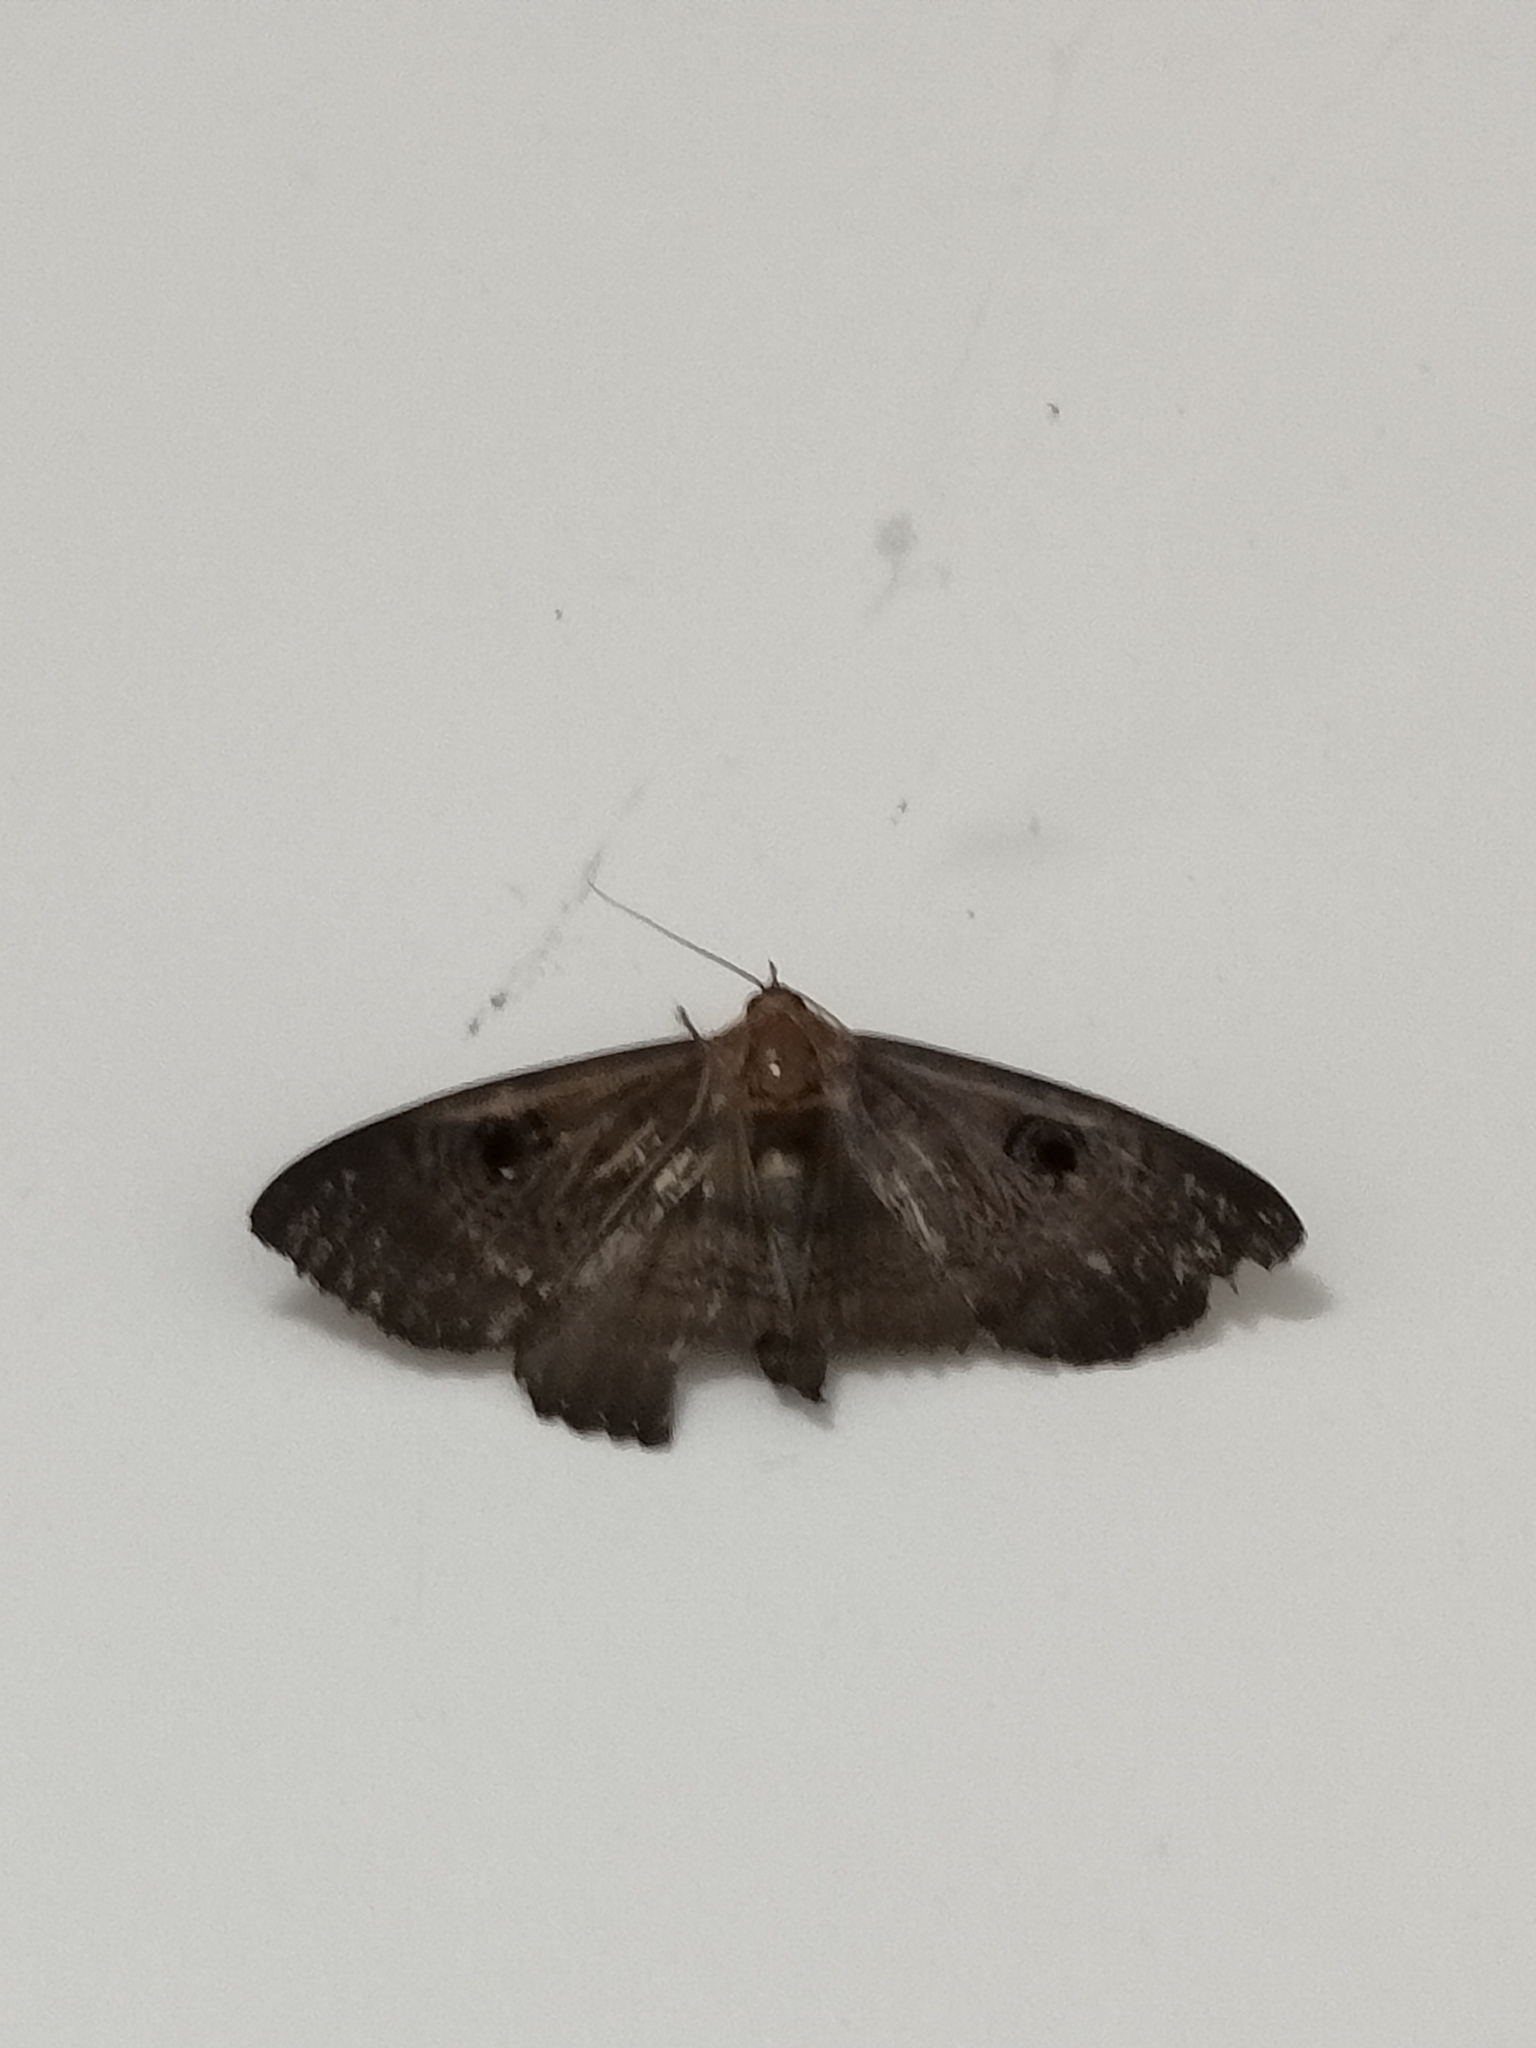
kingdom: Animalia
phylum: Arthropoda
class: Insecta
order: Lepidoptera
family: Erebidae
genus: Dasypodia
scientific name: Dasypodia selenophora
